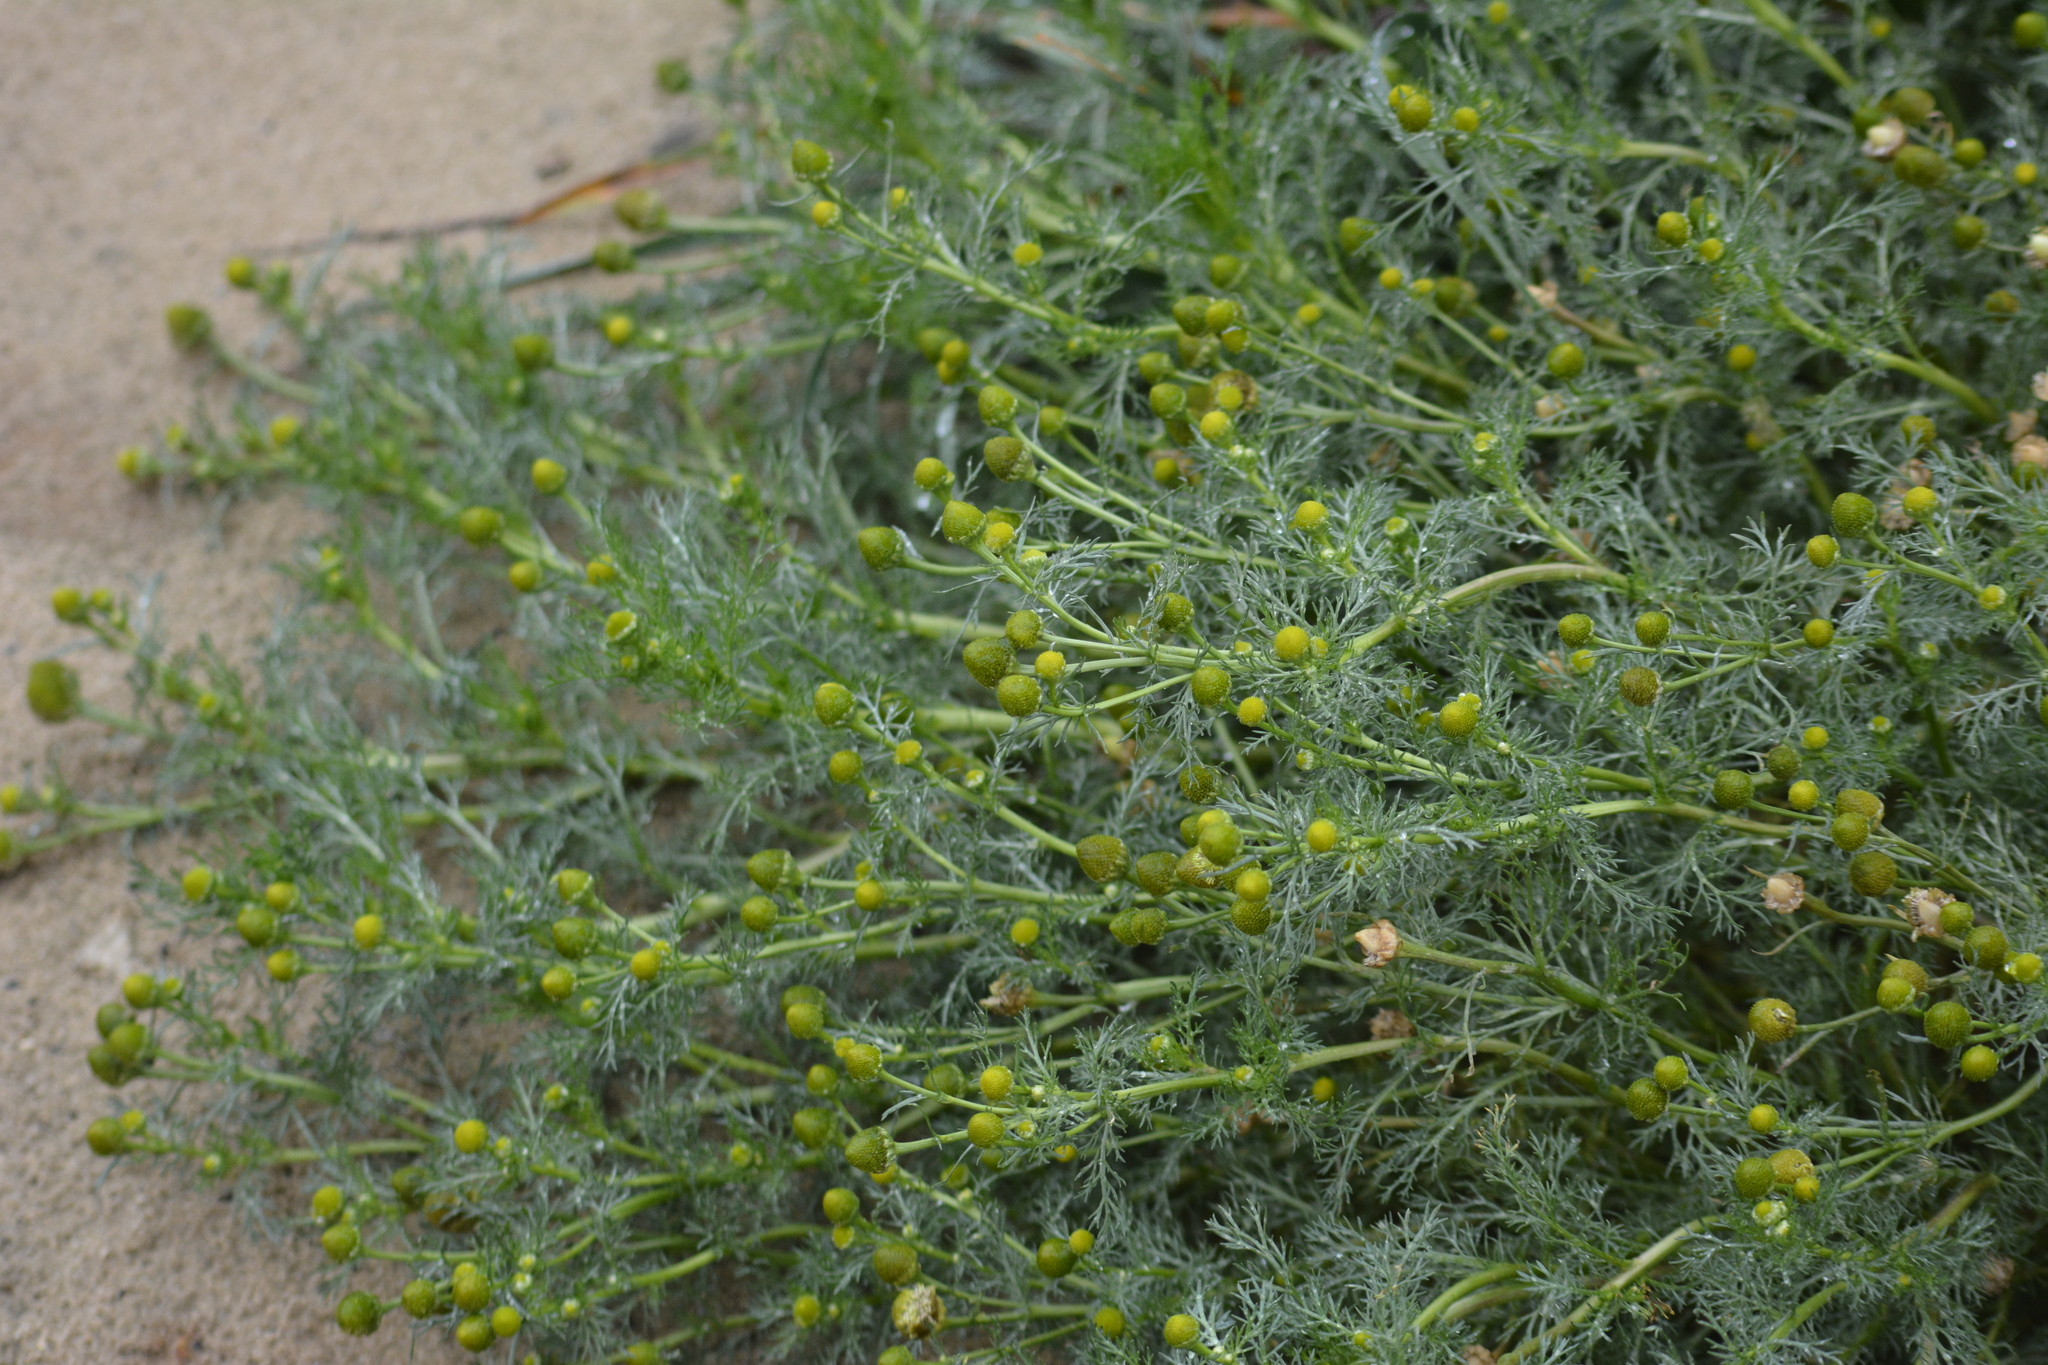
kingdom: Plantae
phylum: Tracheophyta
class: Magnoliopsida
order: Asterales
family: Asteraceae
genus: Matricaria
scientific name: Matricaria discoidea
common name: Disc mayweed
